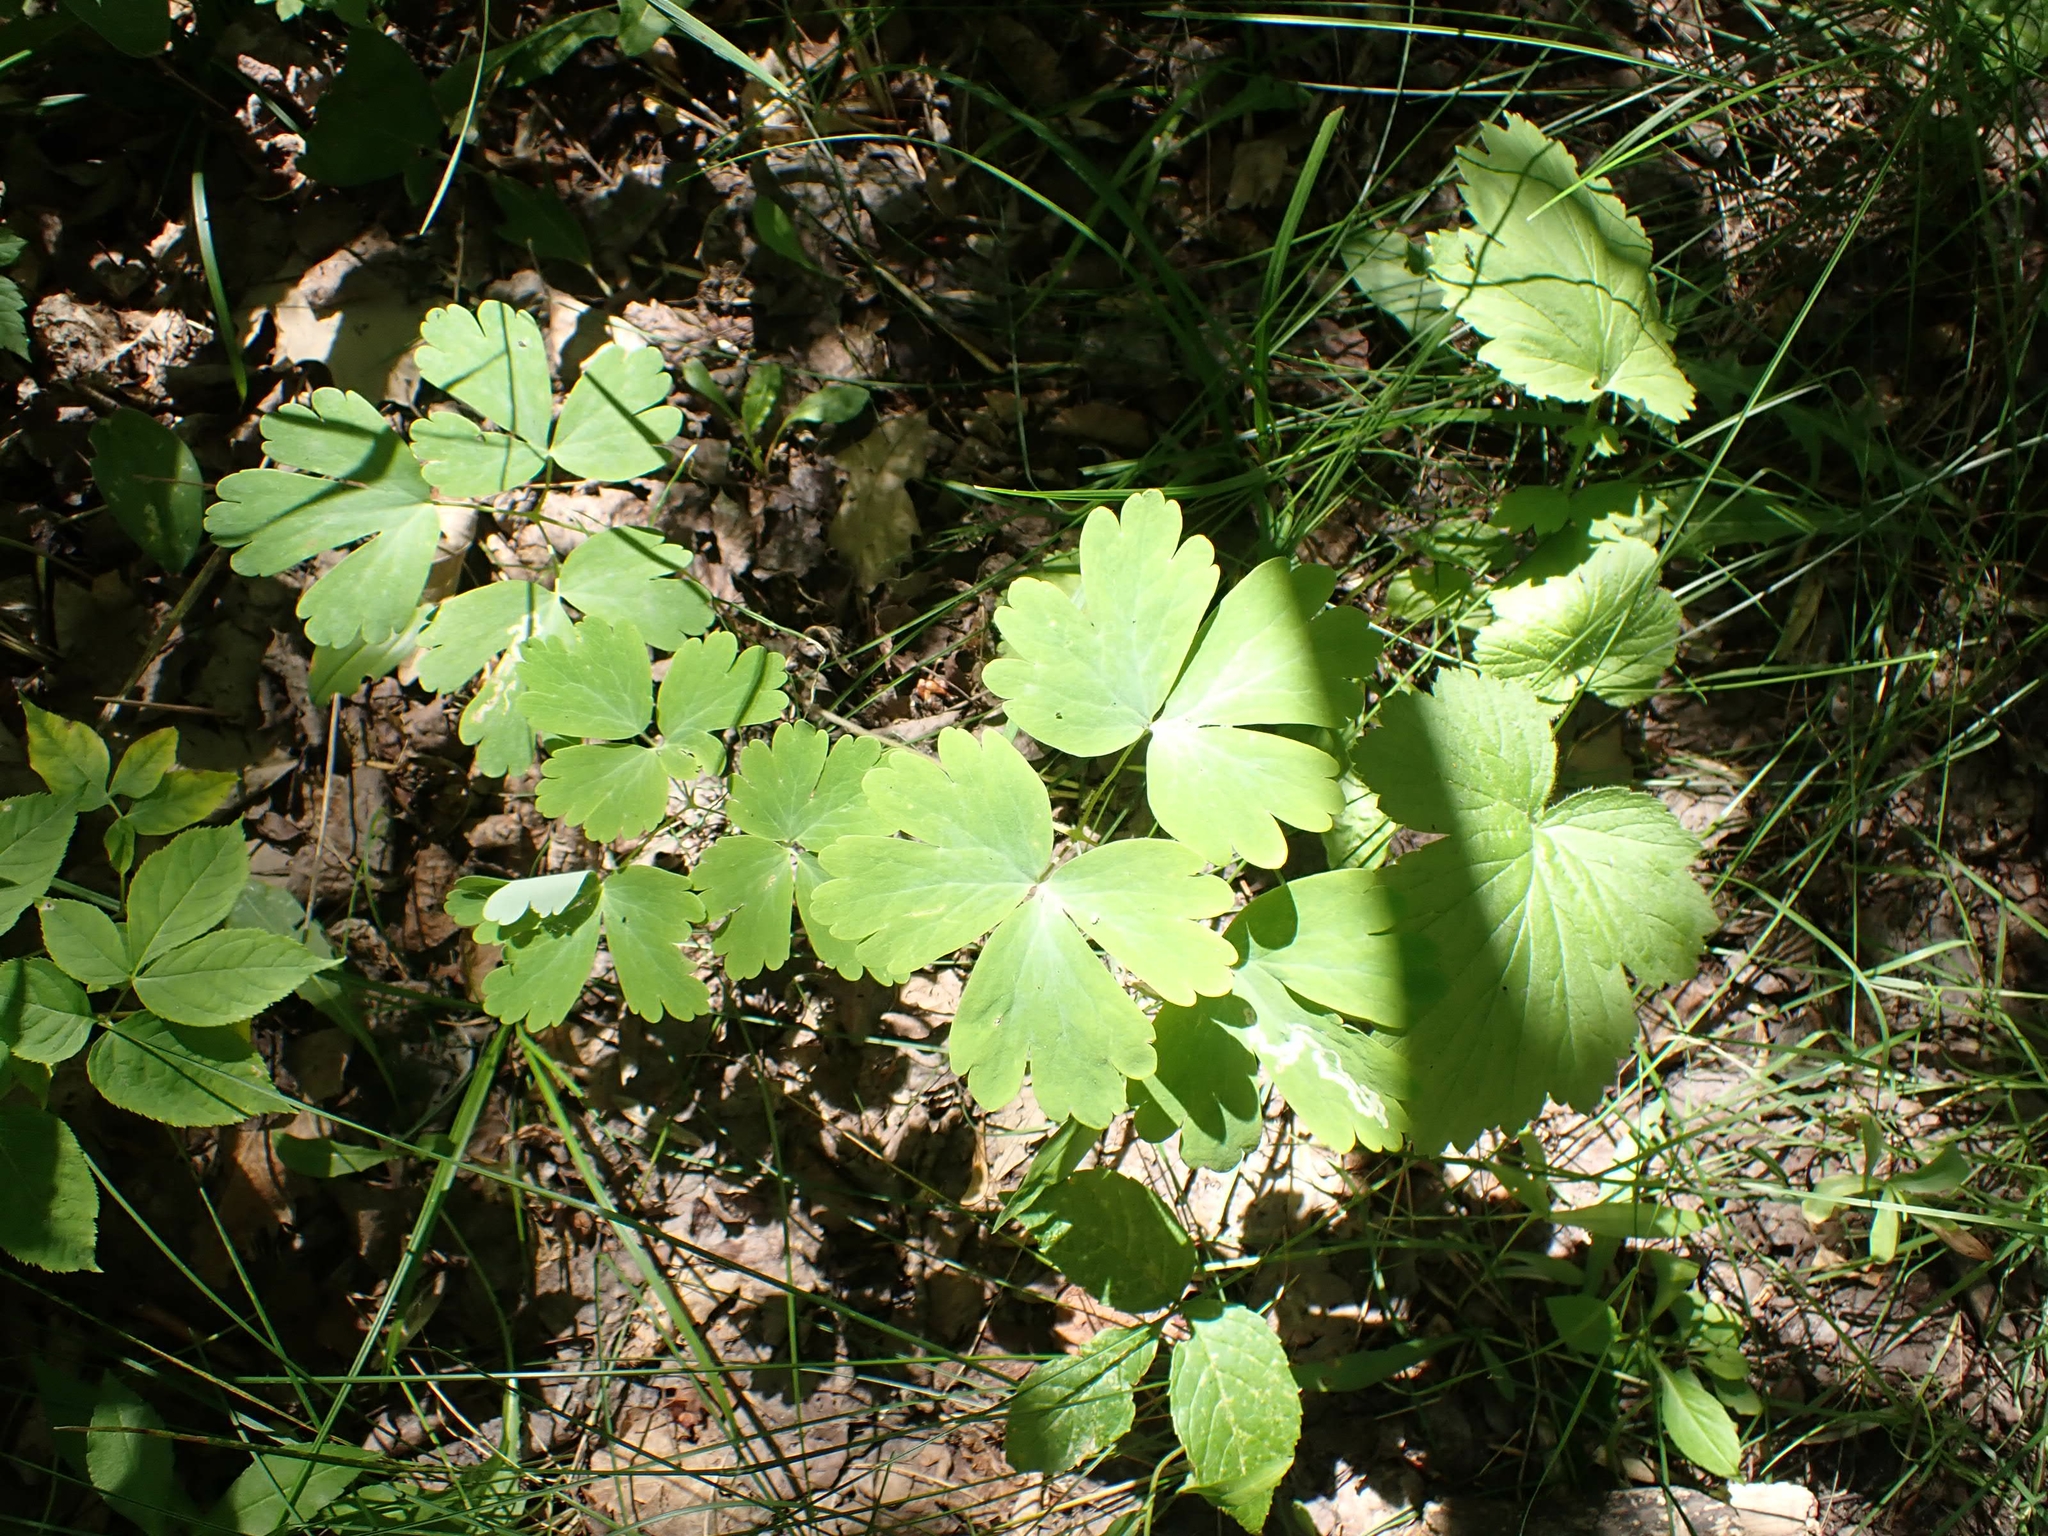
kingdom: Plantae
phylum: Tracheophyta
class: Magnoliopsida
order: Ranunculales
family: Ranunculaceae
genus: Aquilegia
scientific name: Aquilegia canadensis
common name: American columbine
